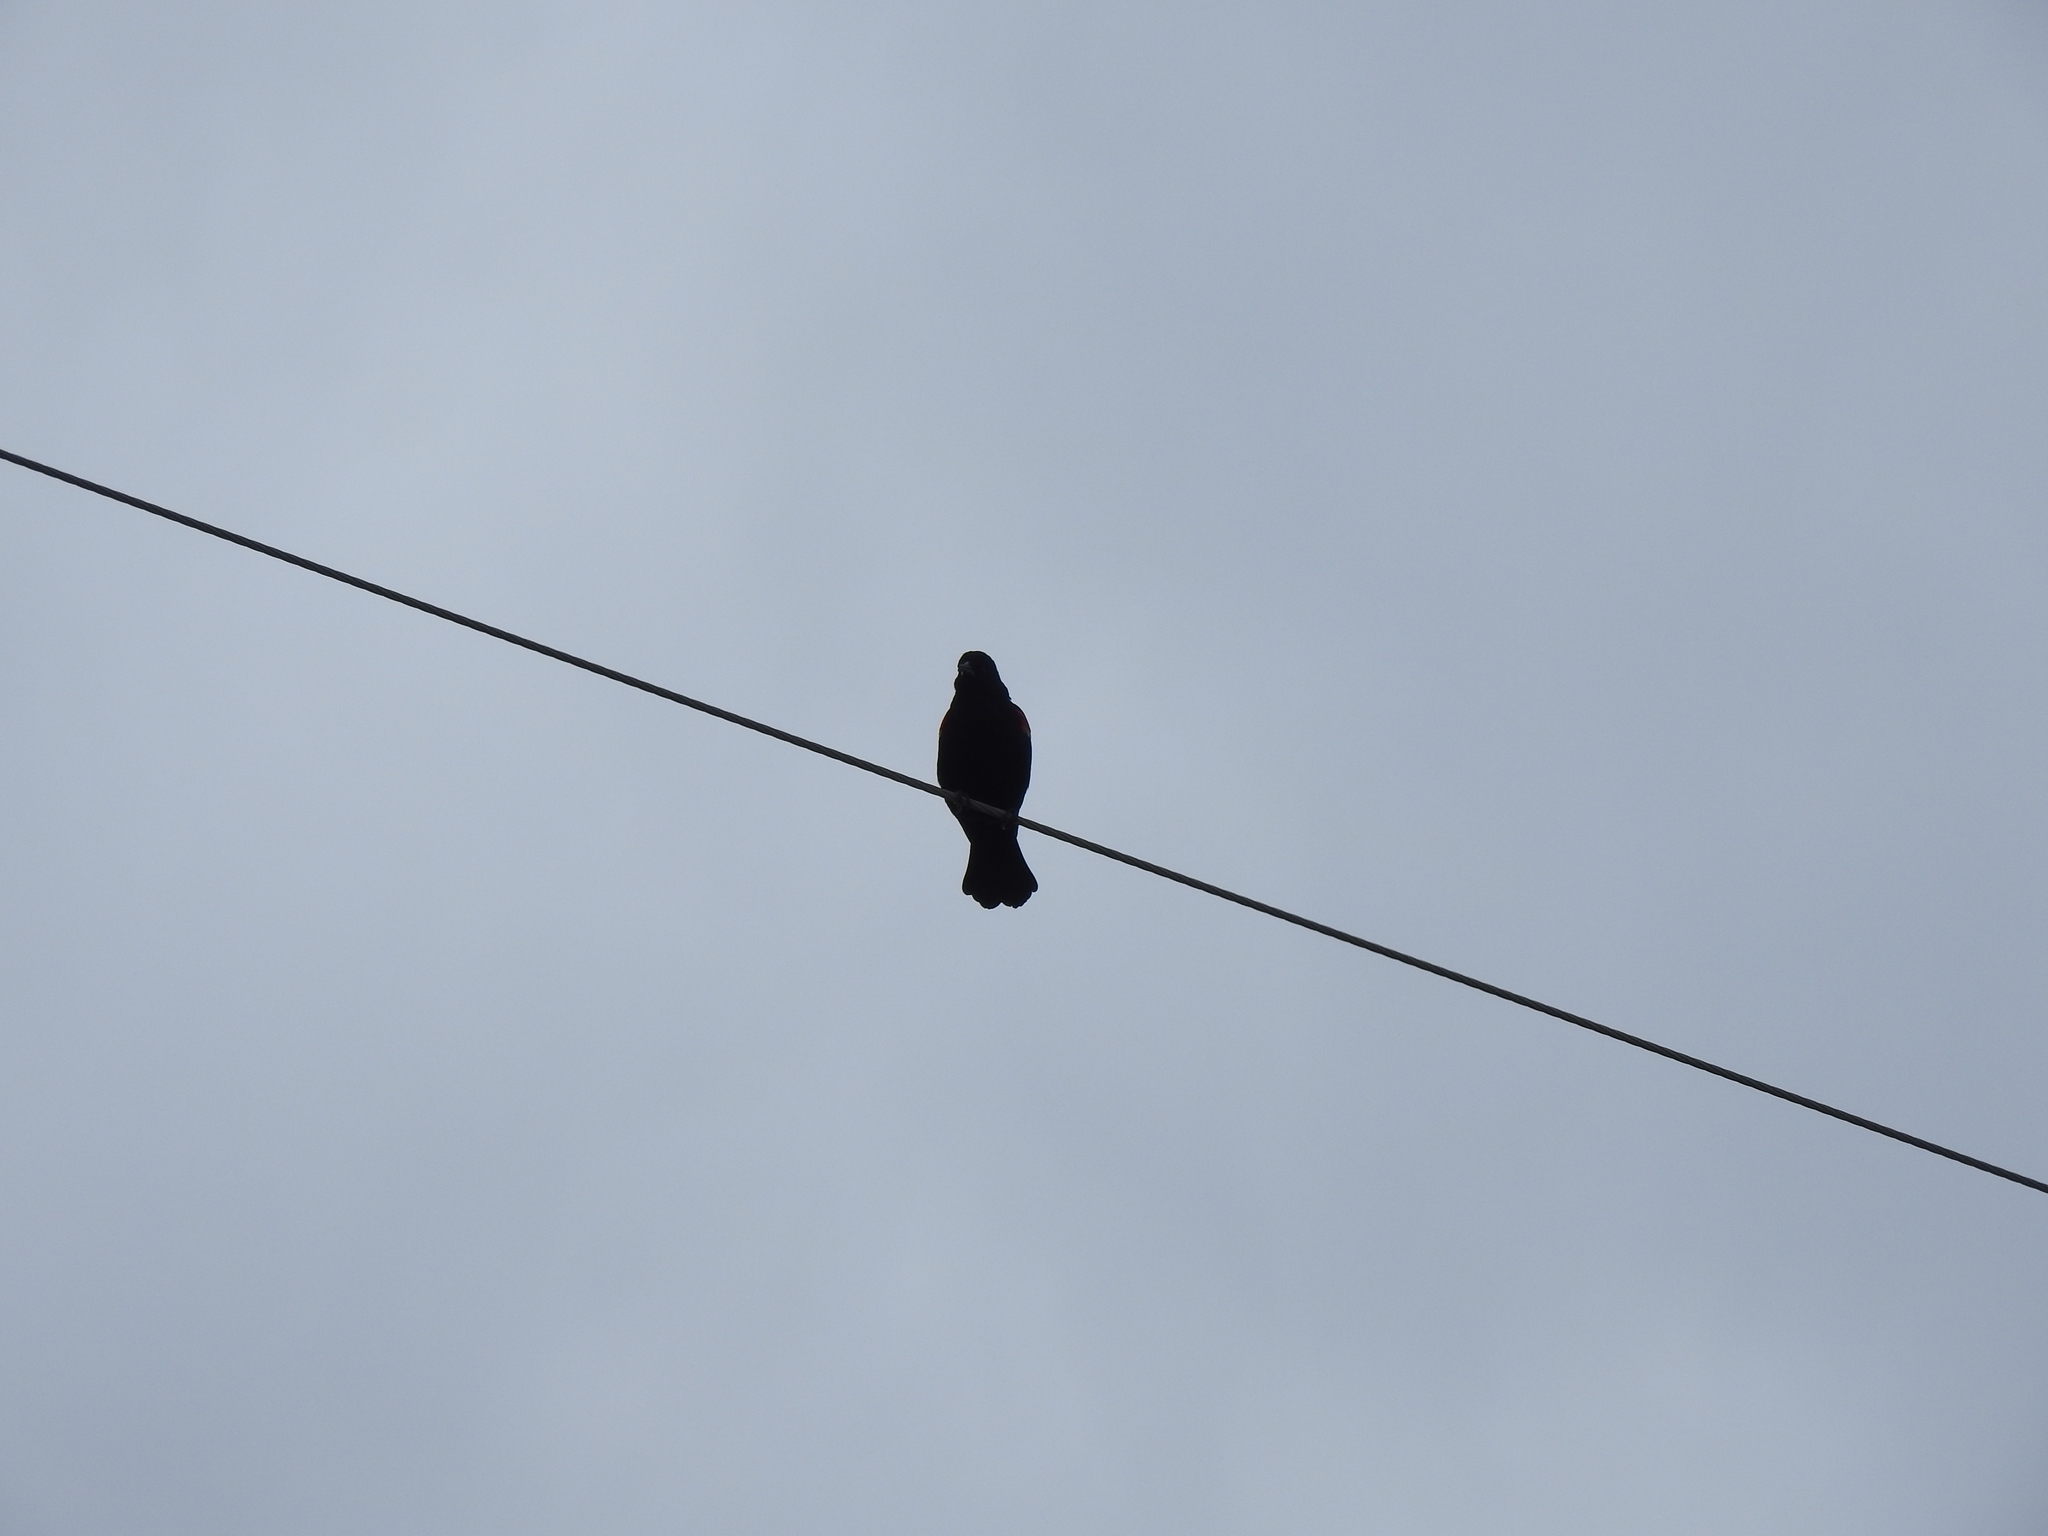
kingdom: Animalia
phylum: Chordata
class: Aves
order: Passeriformes
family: Icteridae
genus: Agelaius
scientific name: Agelaius phoeniceus
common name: Red-winged blackbird
